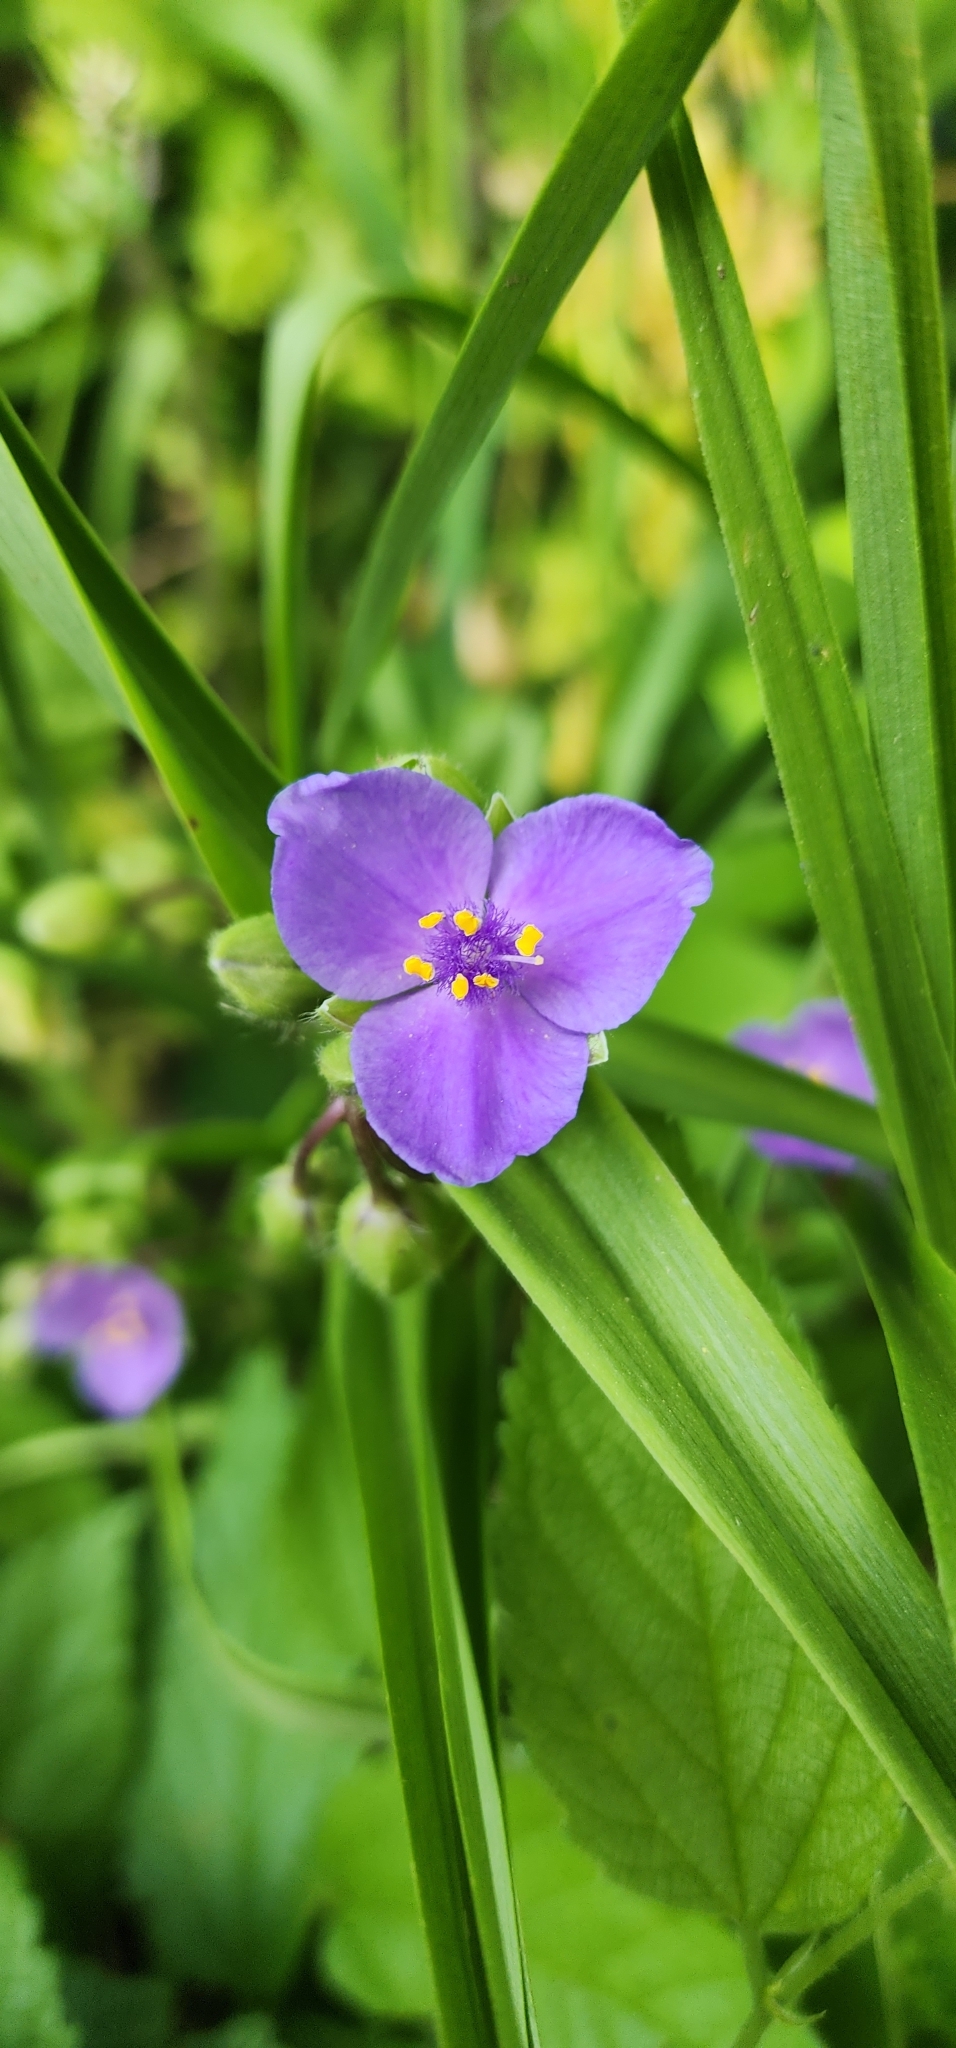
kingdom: Plantae
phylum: Tracheophyta
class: Liliopsida
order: Commelinales
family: Commelinaceae
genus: Tradescantia
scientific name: Tradescantia virginiana
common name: Spiderwort
